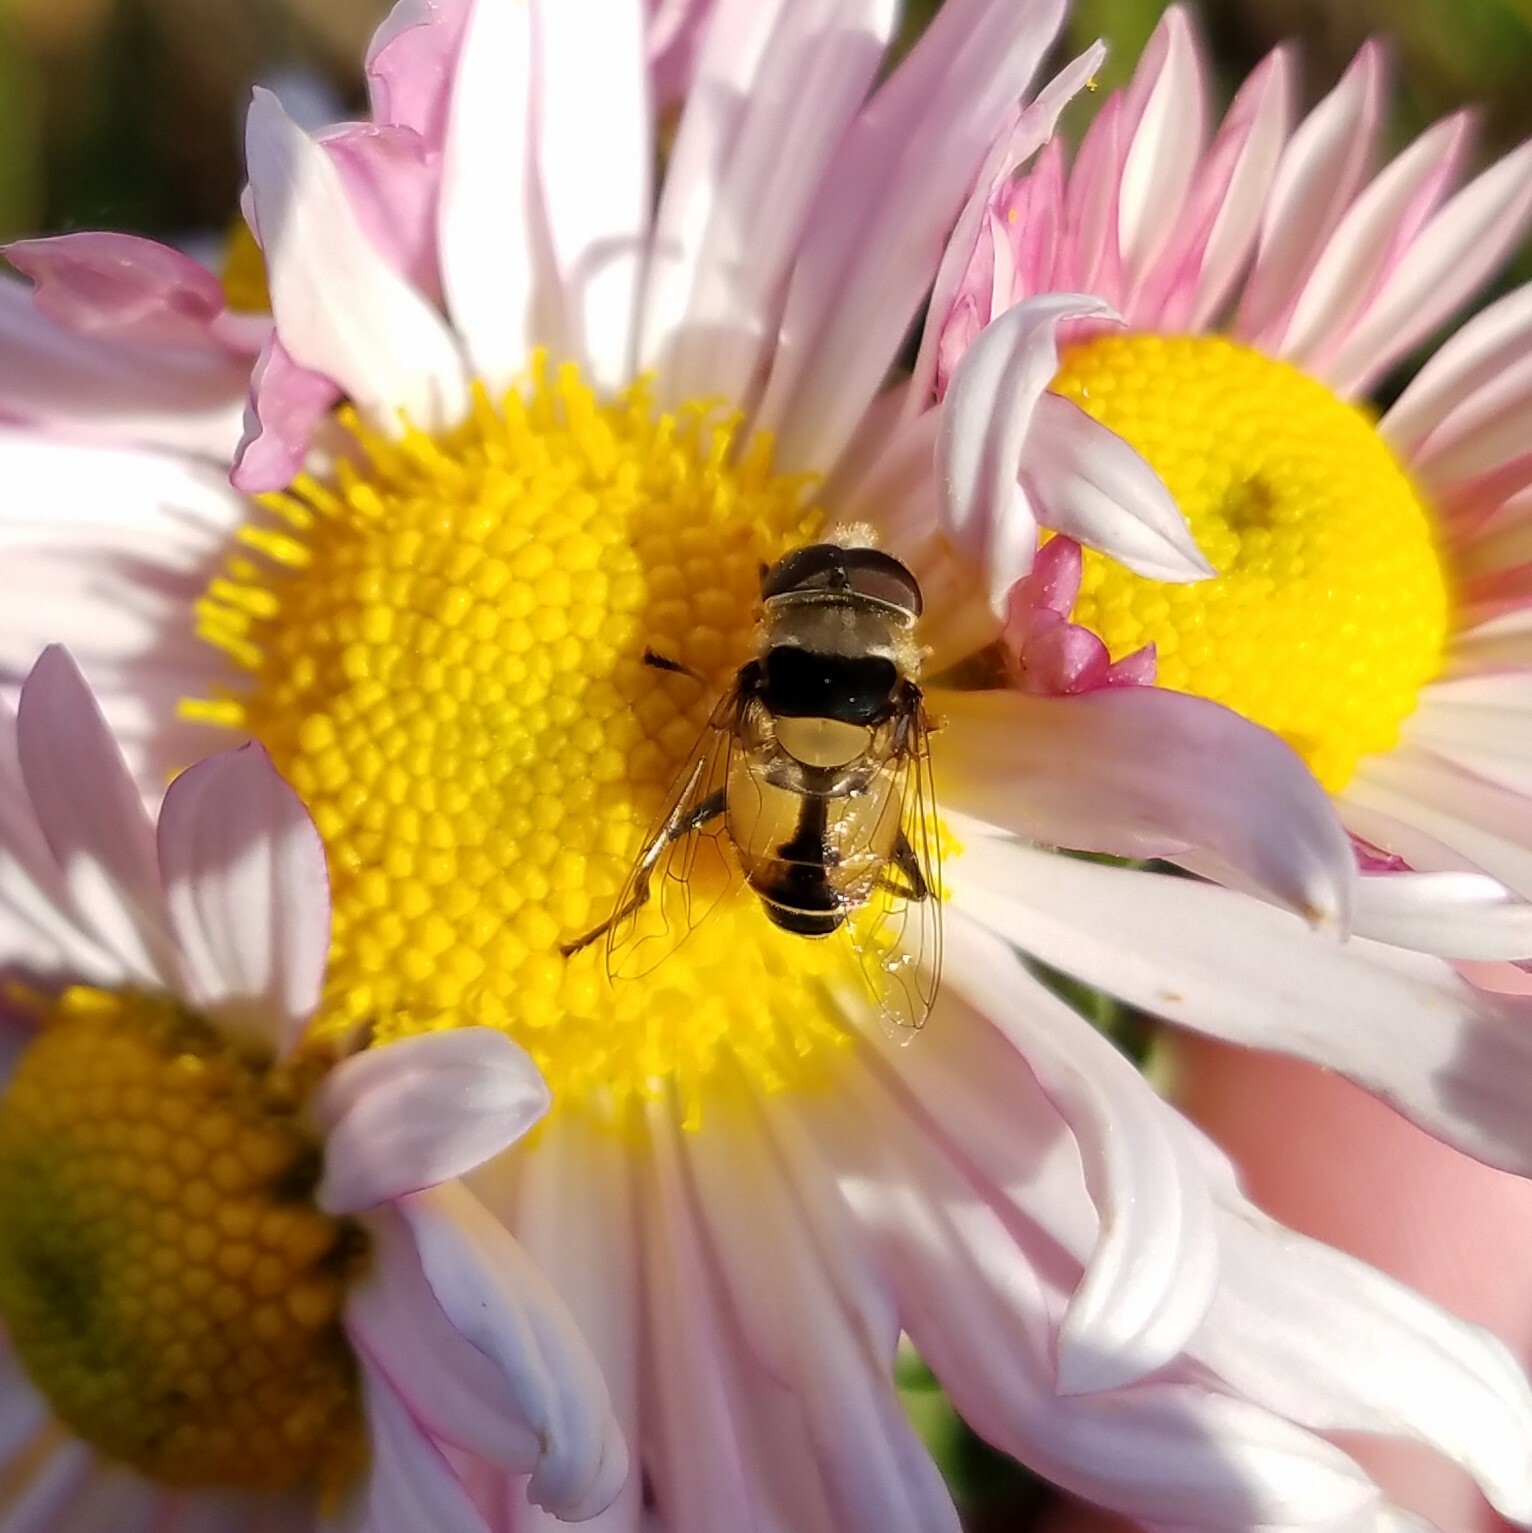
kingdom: Animalia
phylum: Arthropoda
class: Insecta
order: Diptera
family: Syrphidae
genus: Palpada
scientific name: Palpada pusilla
